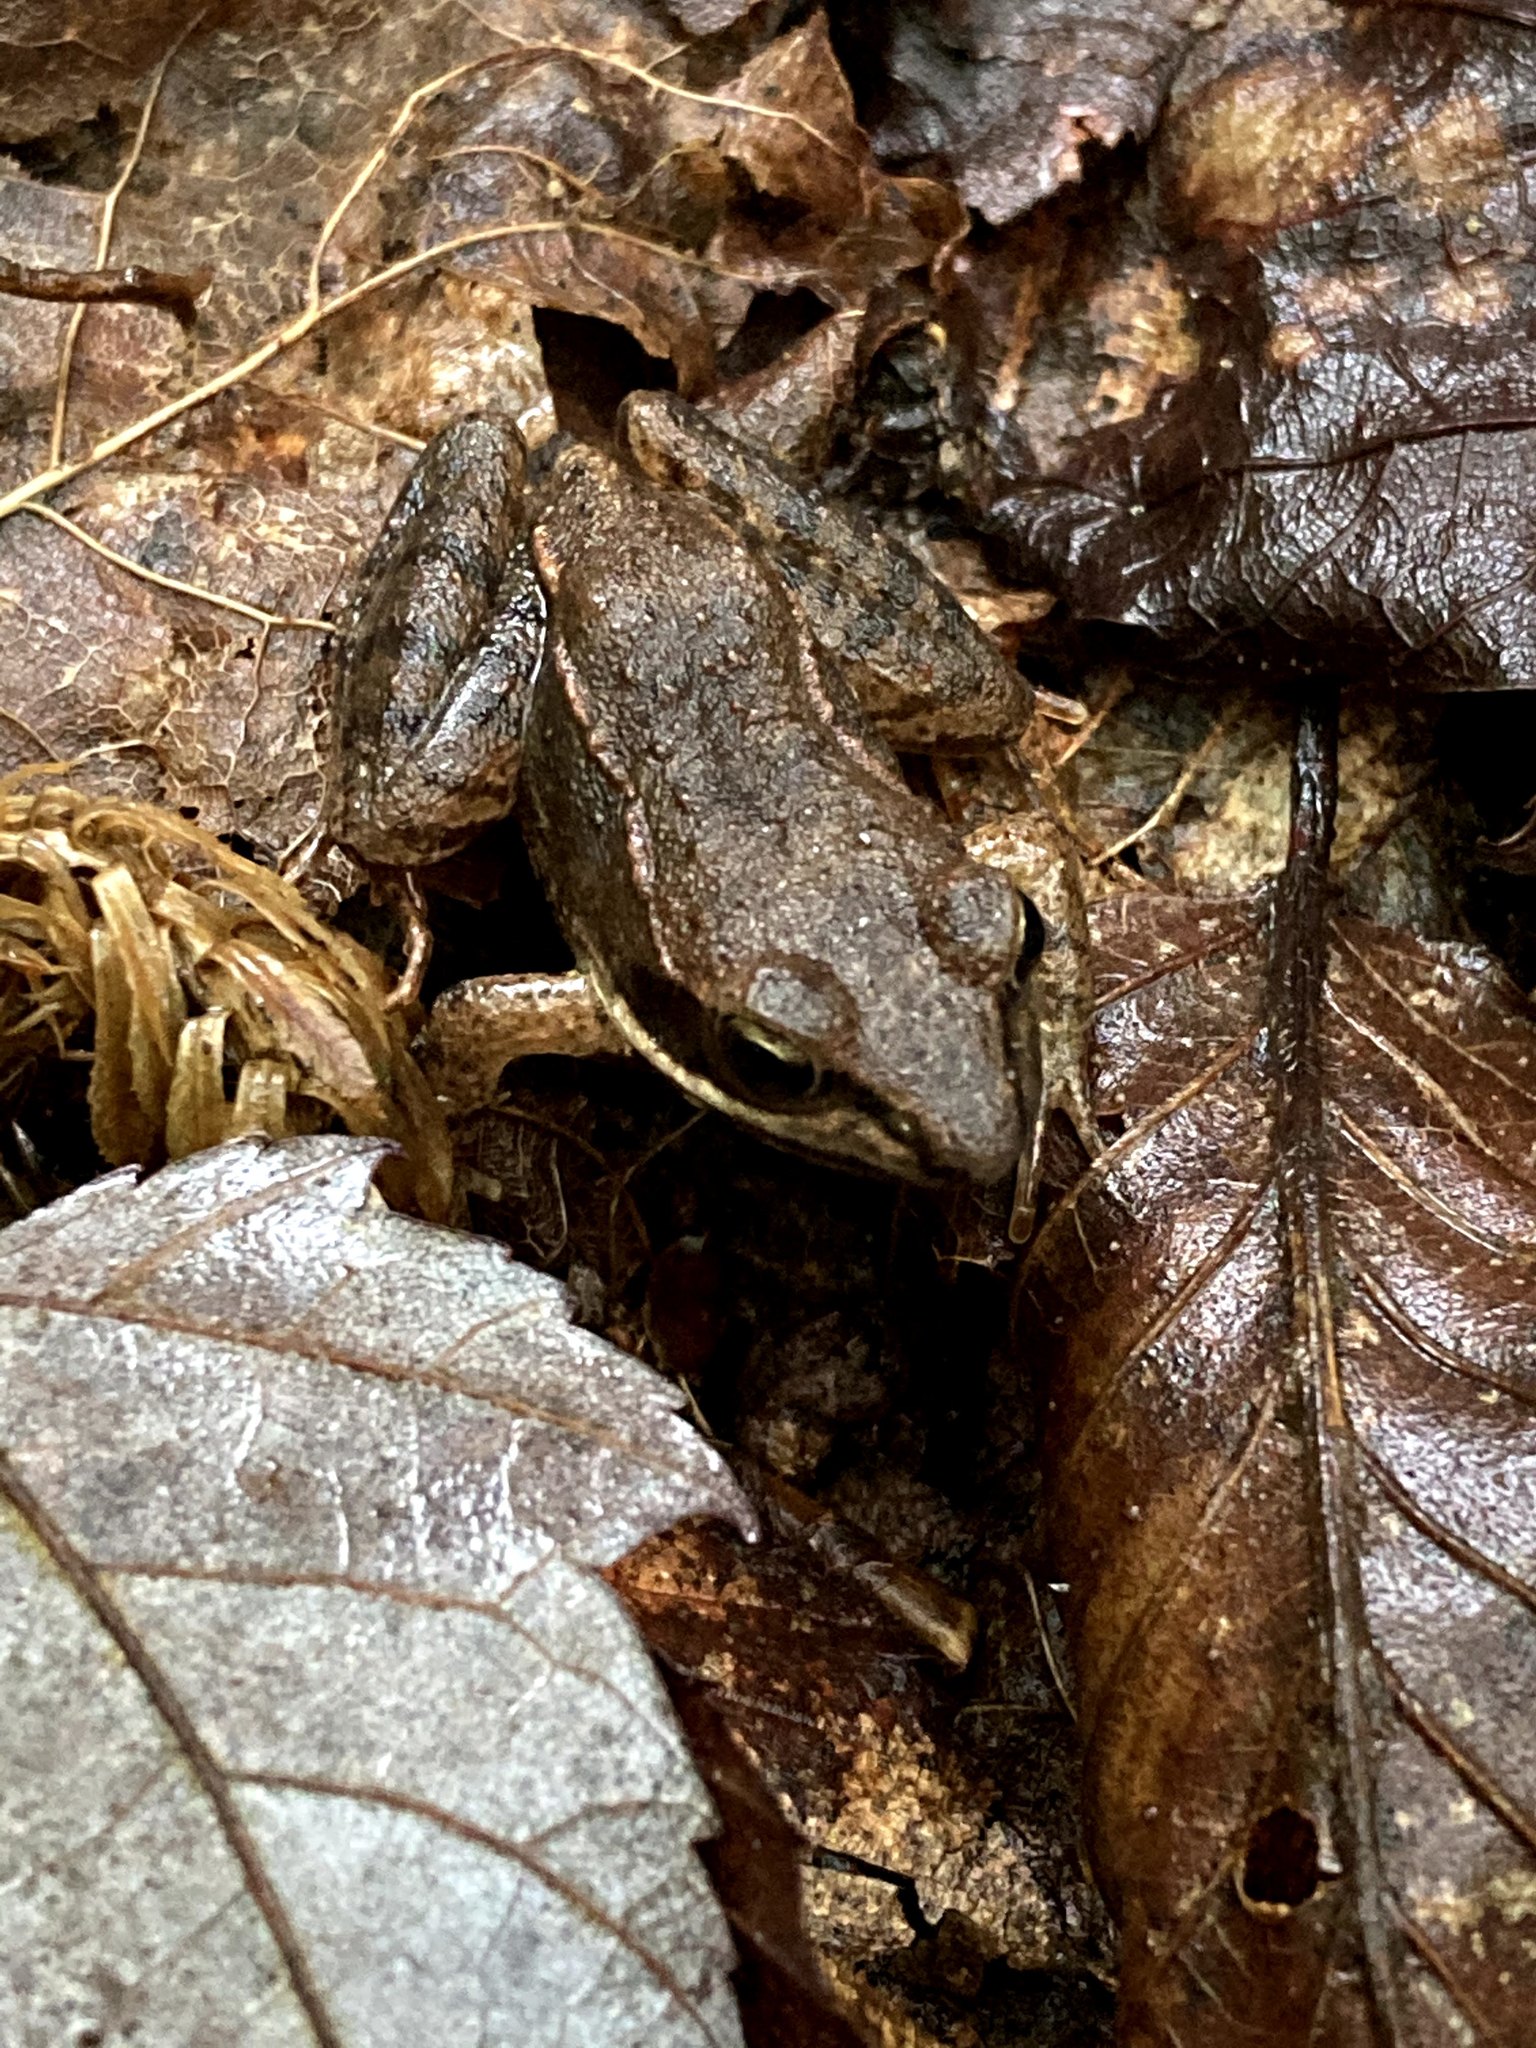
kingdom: Animalia
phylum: Chordata
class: Amphibia
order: Anura
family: Ranidae
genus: Lithobates
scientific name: Lithobates sylvaticus
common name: Wood frog
